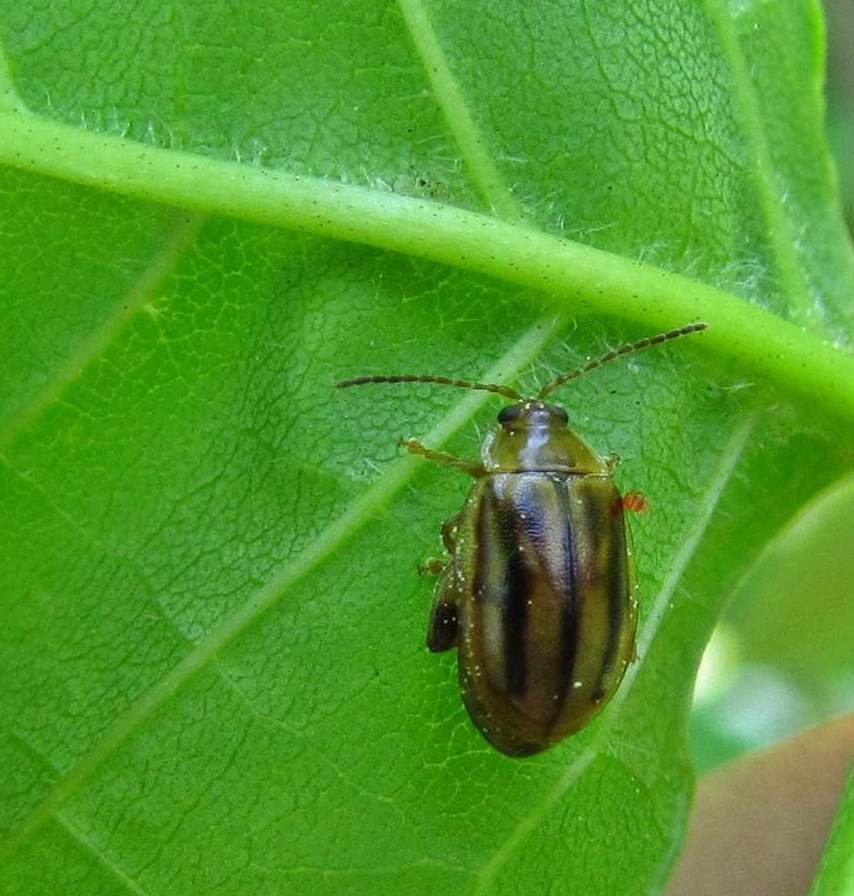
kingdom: Animalia
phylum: Arthropoda
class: Insecta
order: Coleoptera
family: Chrysomelidae
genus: Capraita
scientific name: Capraita subvittata
